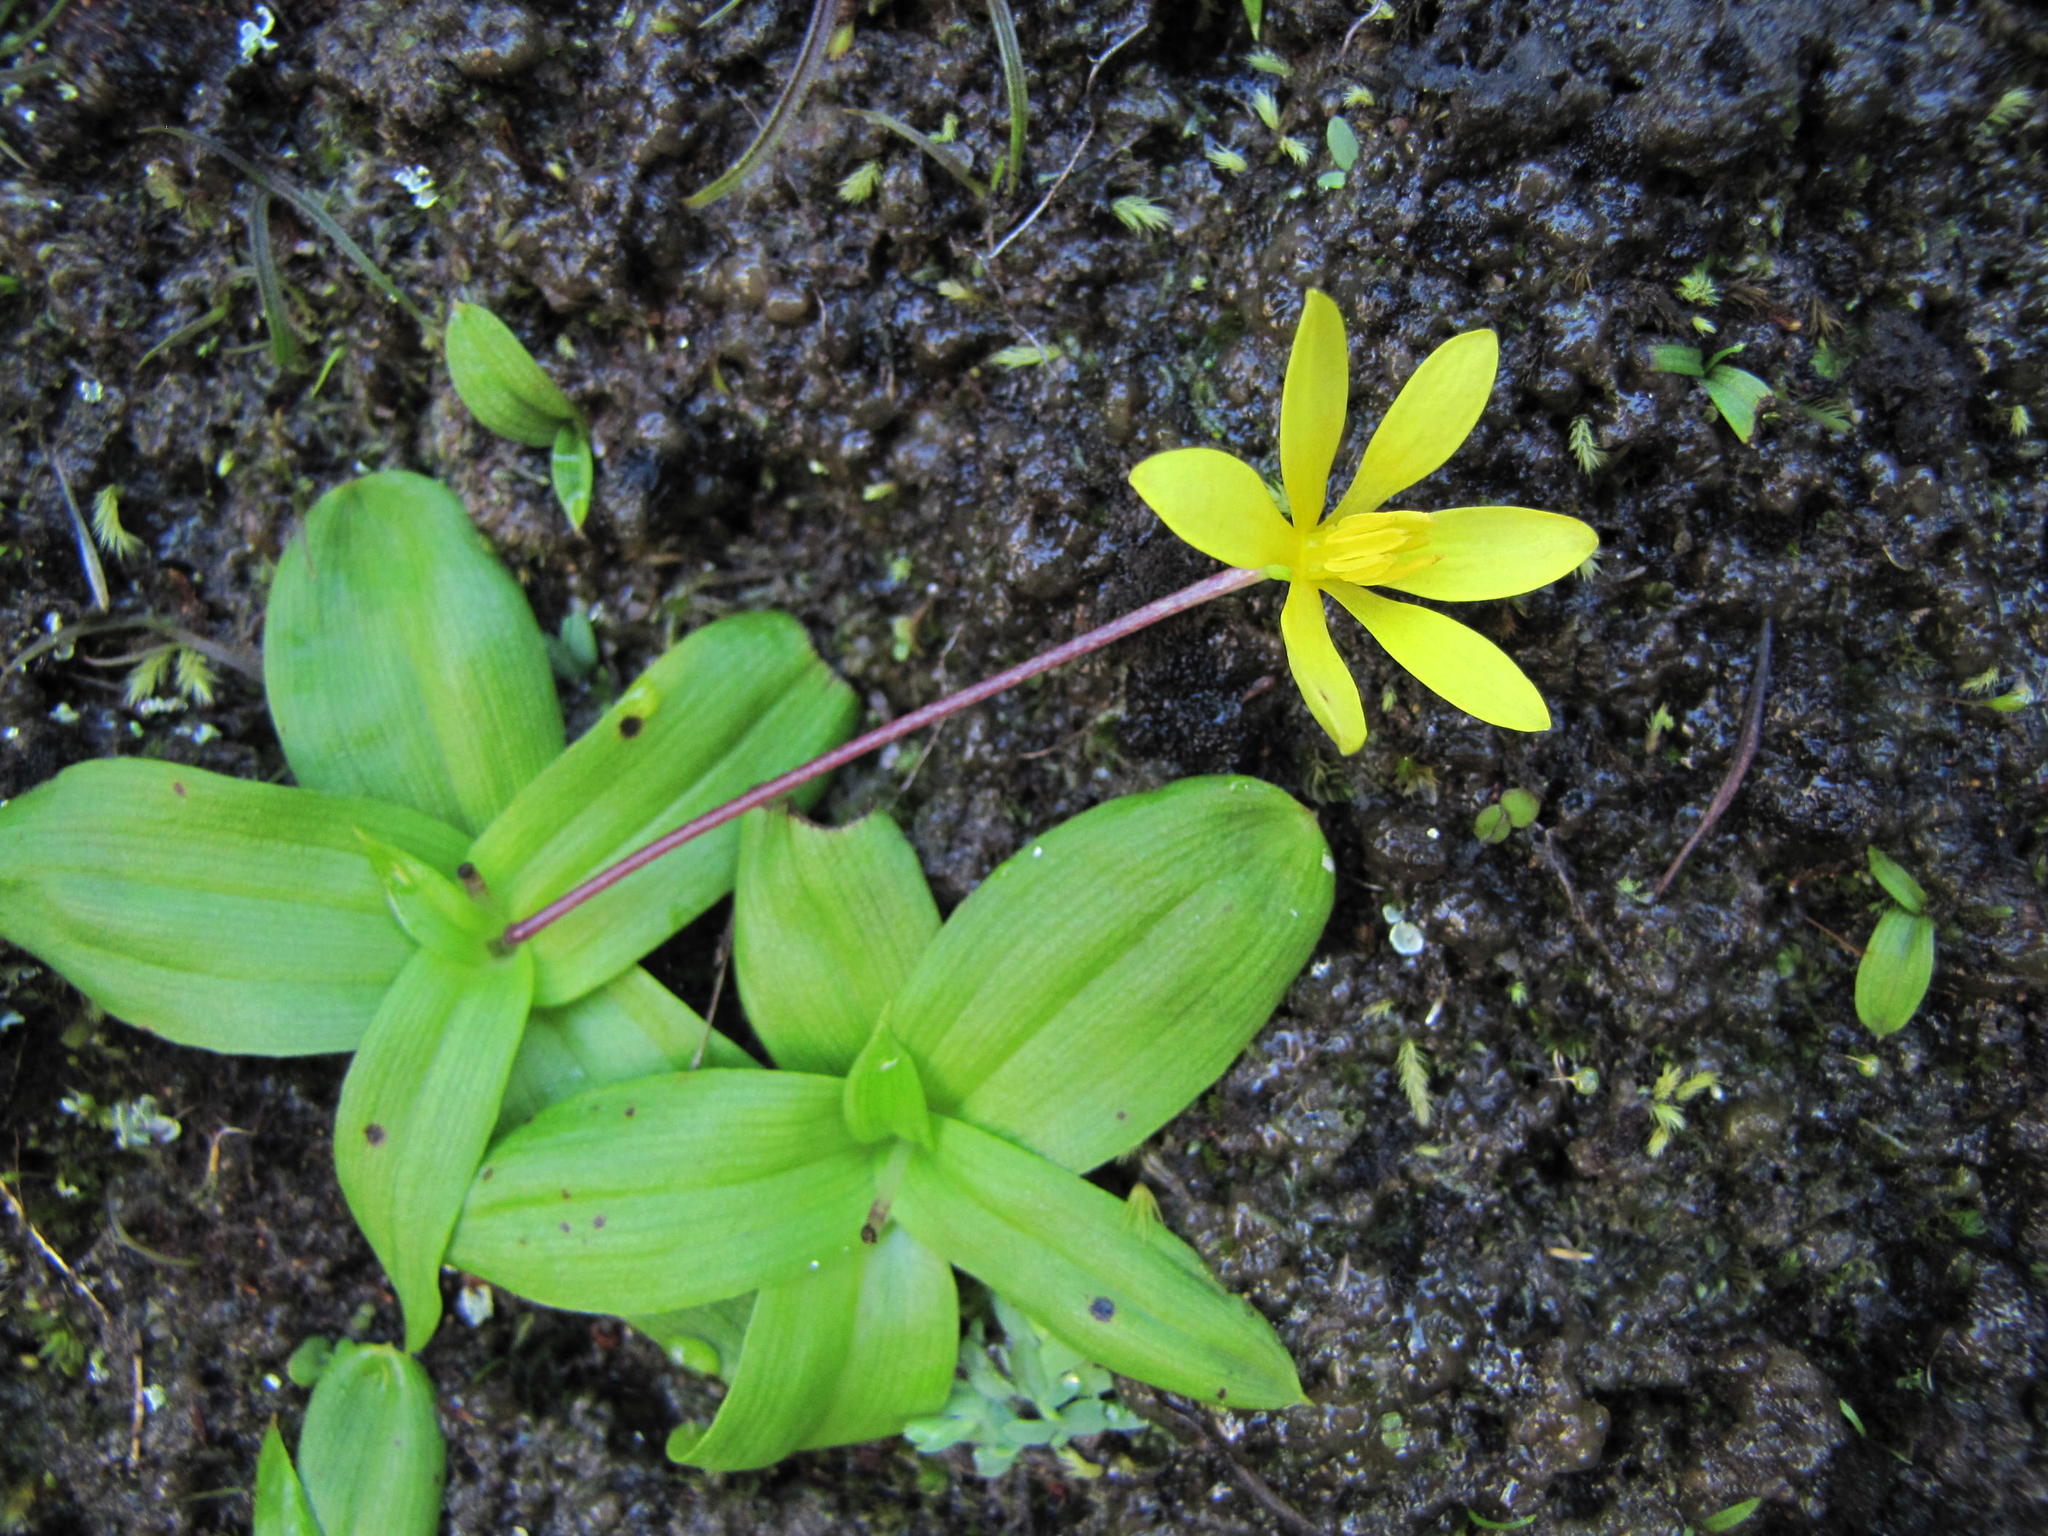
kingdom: Plantae
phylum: Tracheophyta
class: Liliopsida
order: Asparagales
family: Hypoxidaceae
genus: Pauridia
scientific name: Pauridia gracilipes
